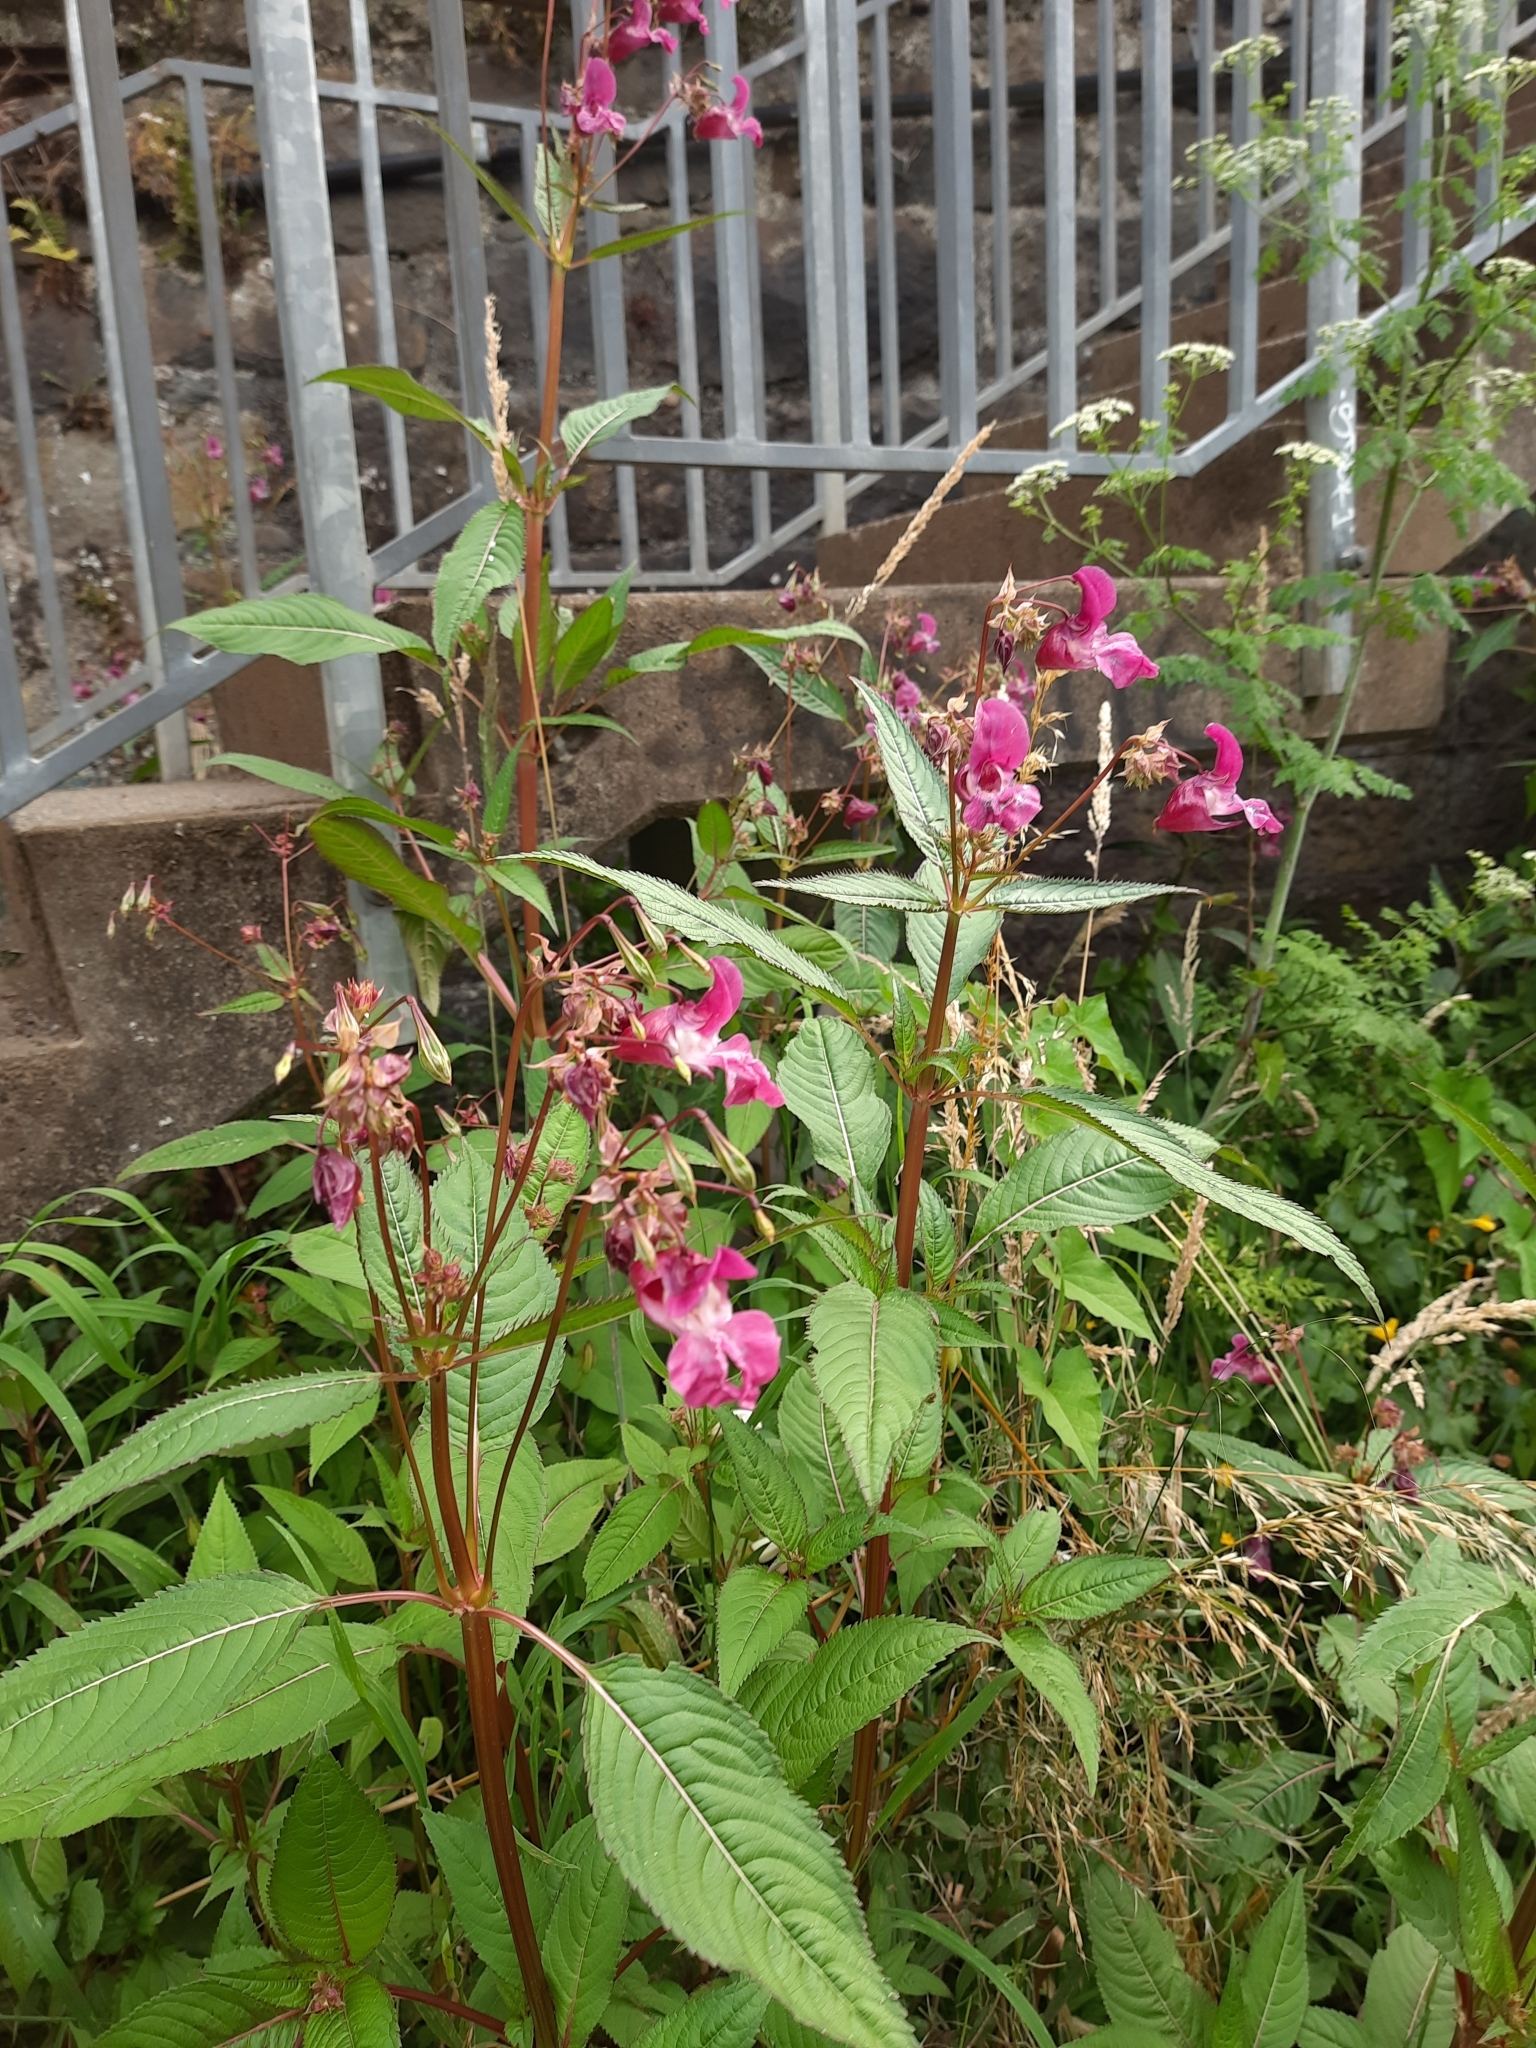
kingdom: Plantae
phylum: Tracheophyta
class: Magnoliopsida
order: Ericales
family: Balsaminaceae
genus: Impatiens
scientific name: Impatiens glandulifera
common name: Himalayan balsam
